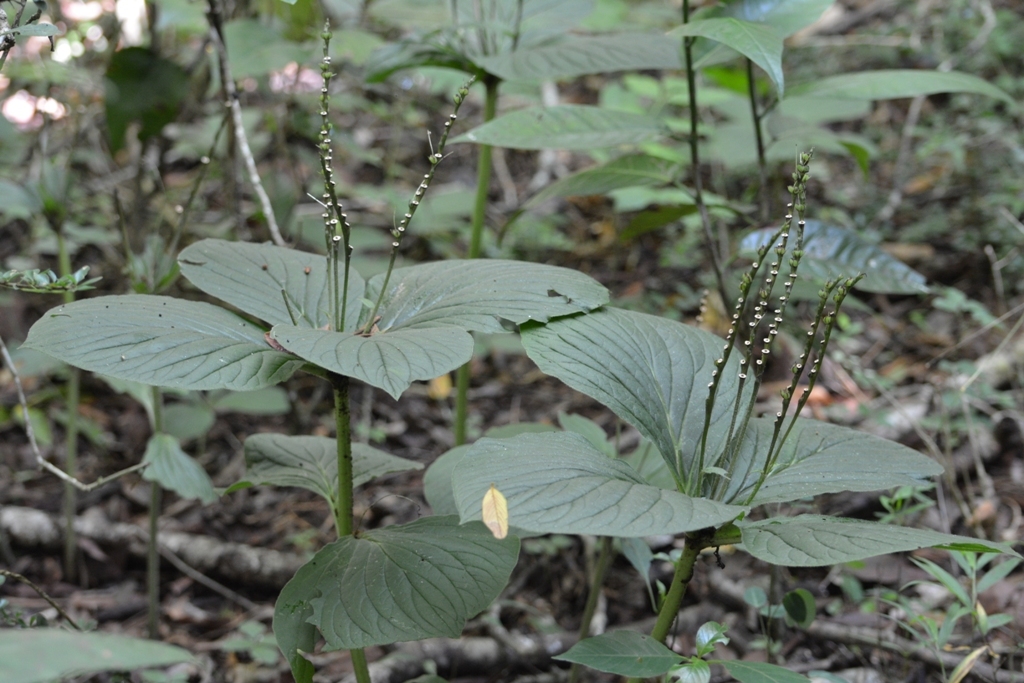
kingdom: Plantae
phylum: Tracheophyta
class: Magnoliopsida
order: Gentianales
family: Loganiaceae
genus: Spigelia
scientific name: Spigelia splendens
